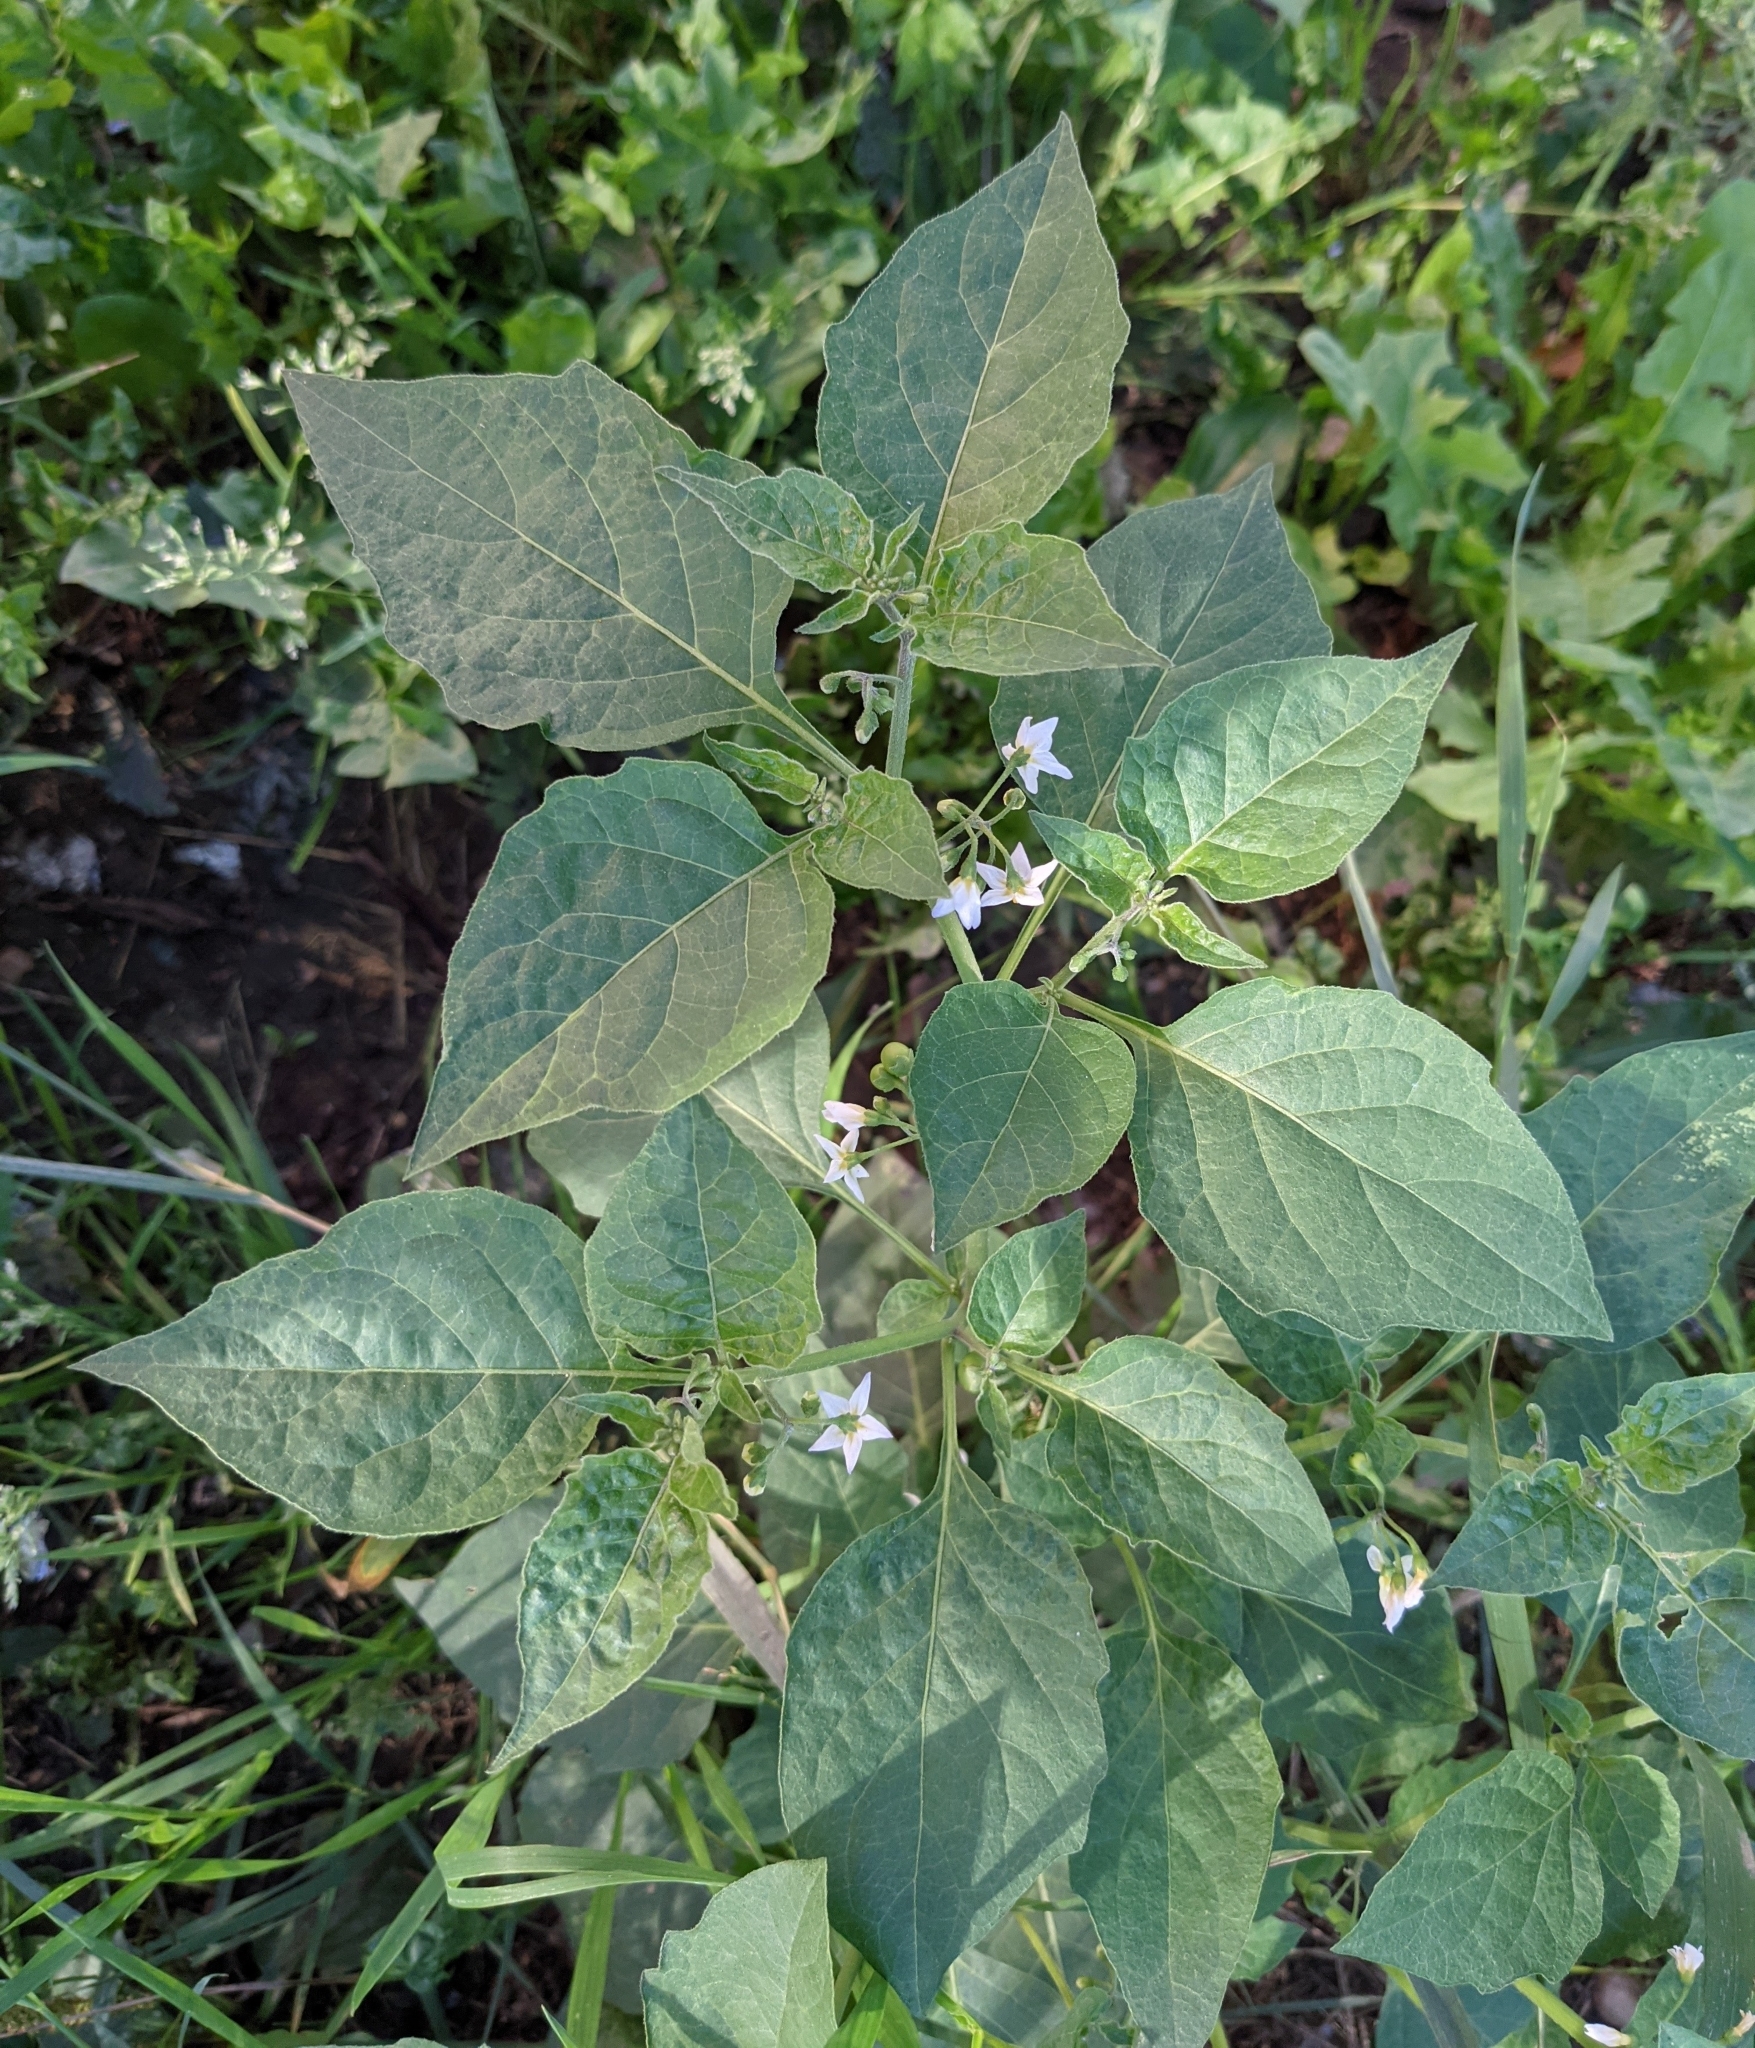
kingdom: Plantae
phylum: Tracheophyta
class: Magnoliopsida
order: Solanales
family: Solanaceae
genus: Solanum
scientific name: Solanum nigrum
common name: Black nightshade
